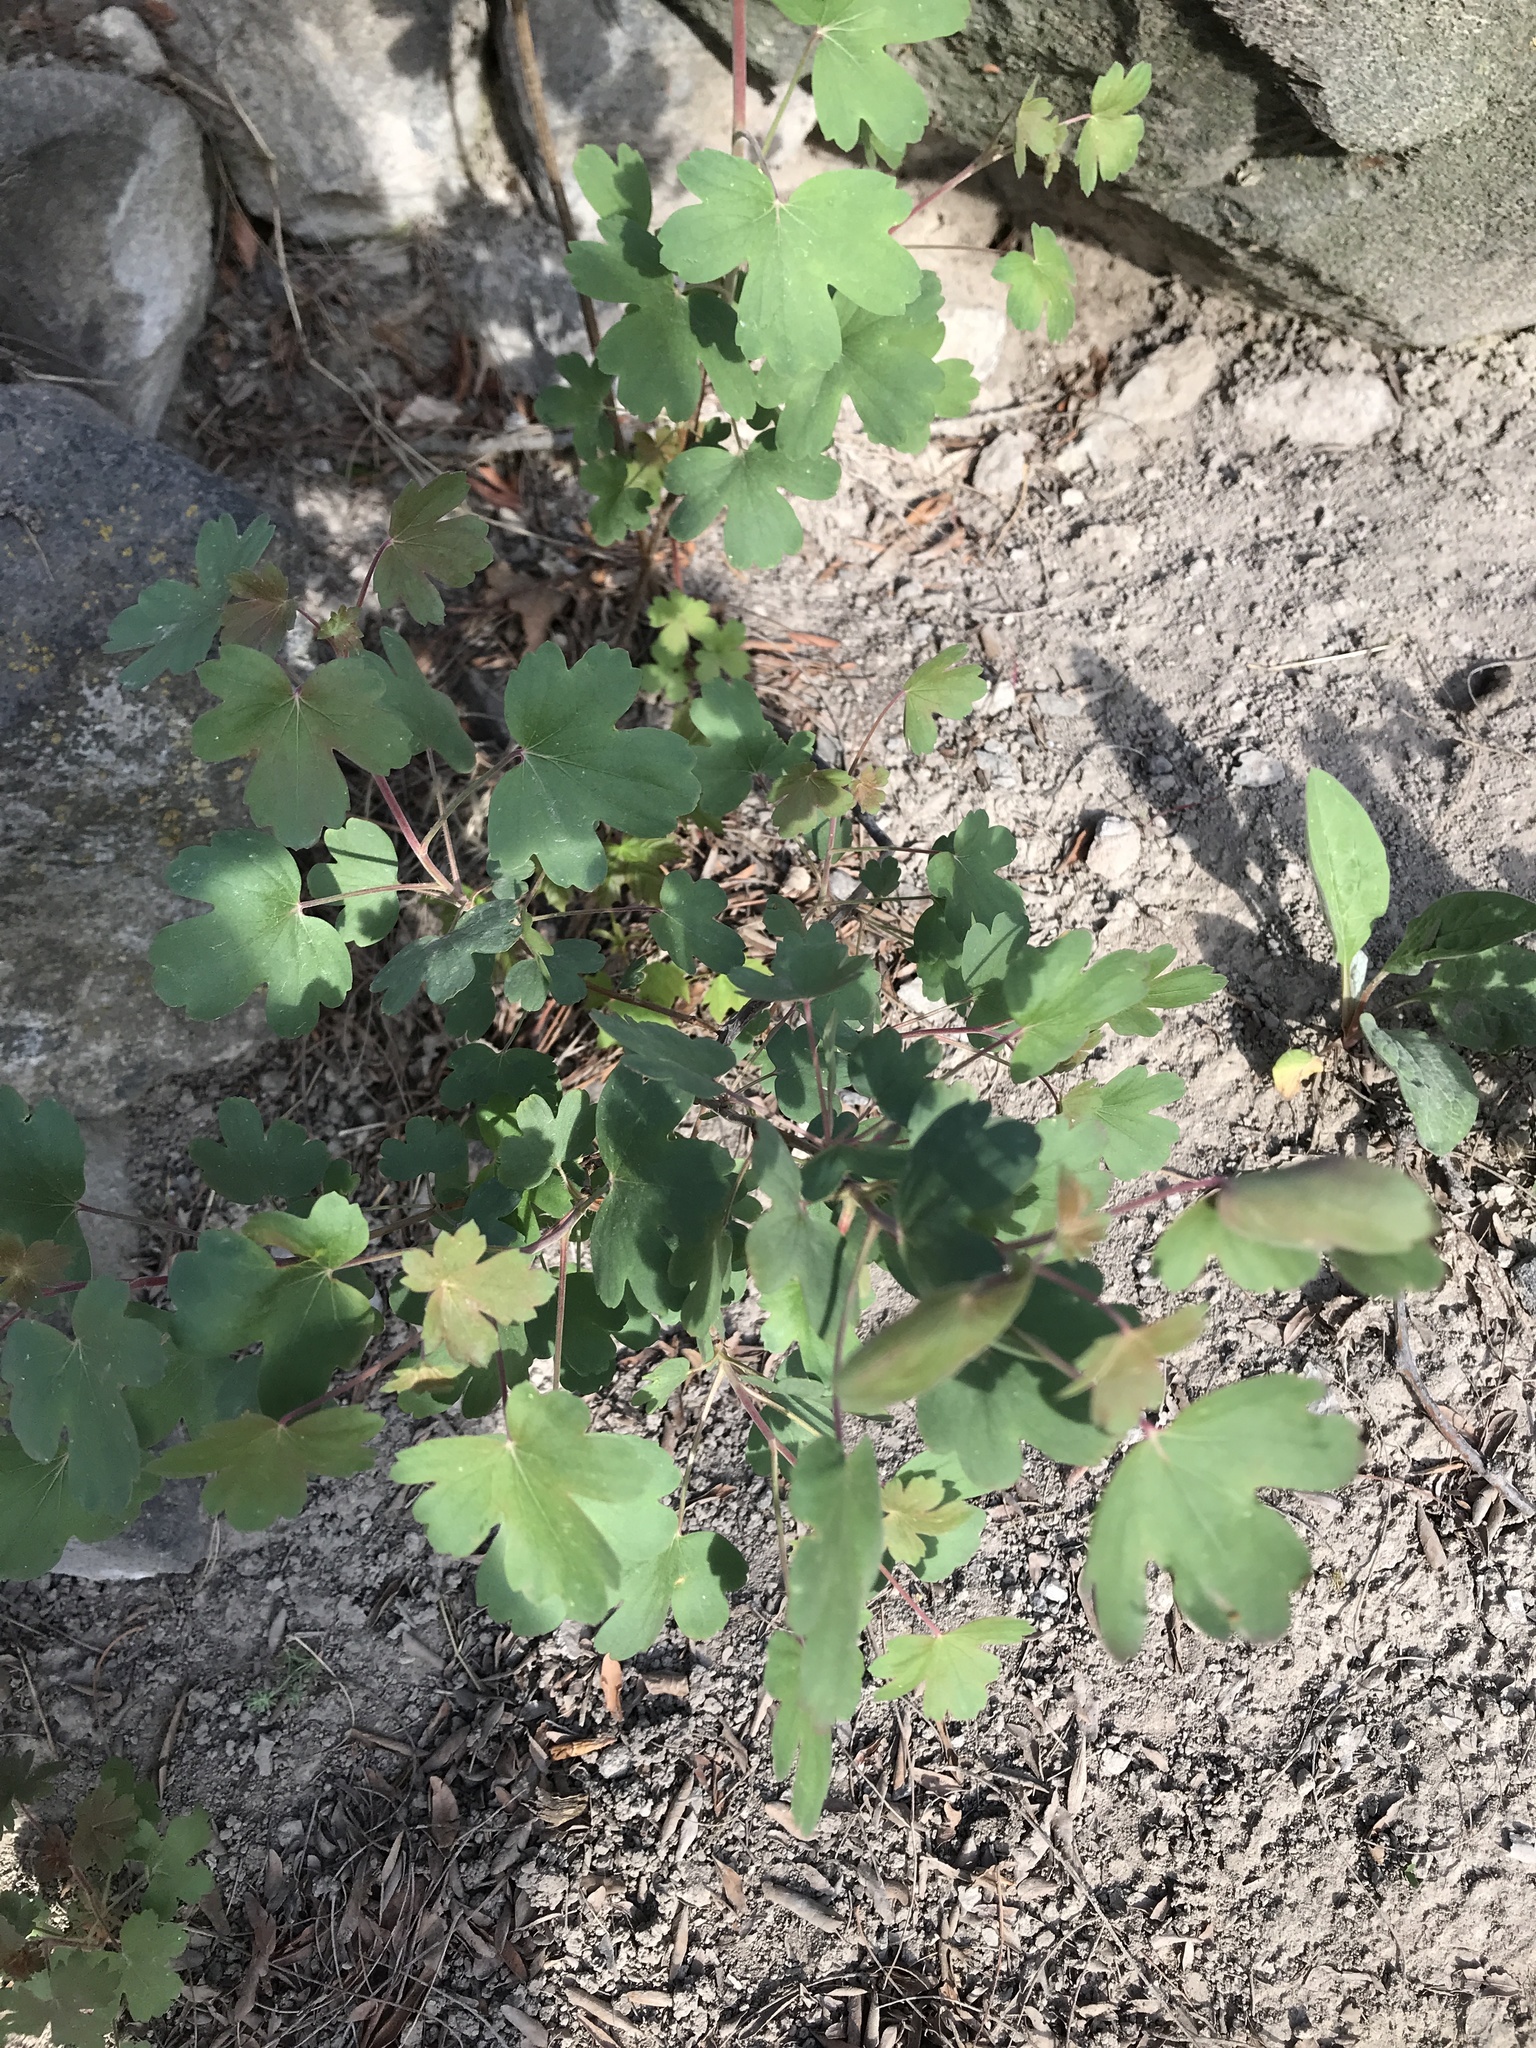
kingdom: Plantae
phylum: Tracheophyta
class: Magnoliopsida
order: Saxifragales
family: Grossulariaceae
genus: Ribes
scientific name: Ribes aureum
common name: Golden currant
